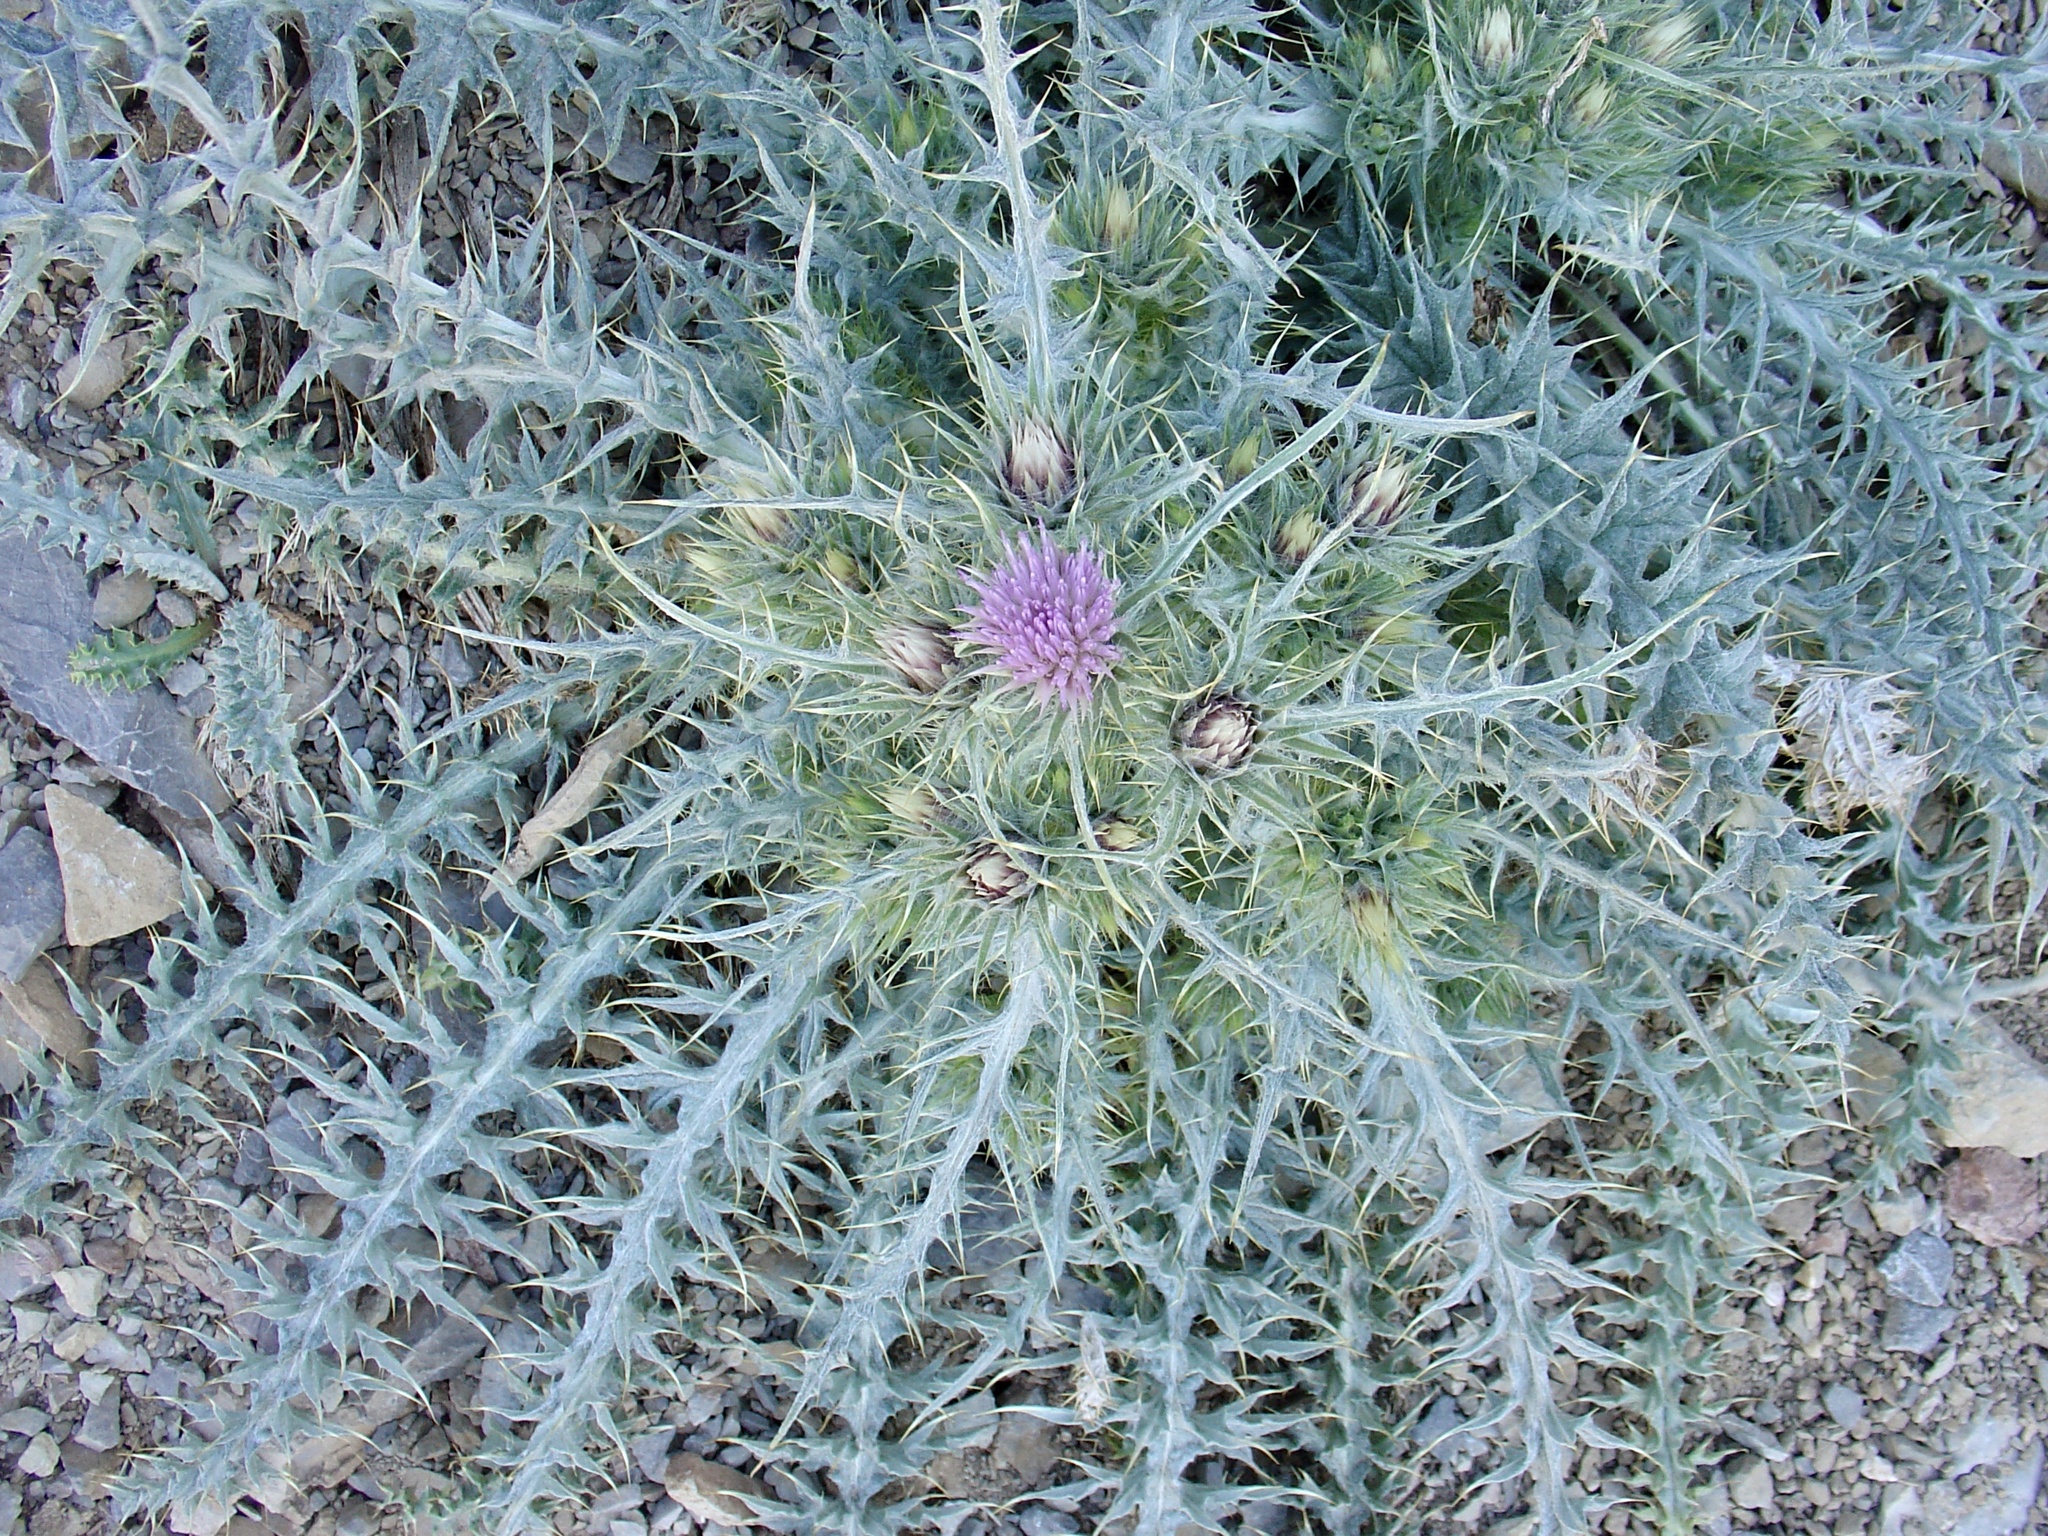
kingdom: Plantae
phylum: Tracheophyta
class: Magnoliopsida
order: Asterales
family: Asteraceae
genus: Carduus
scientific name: Carduus carlinoides
